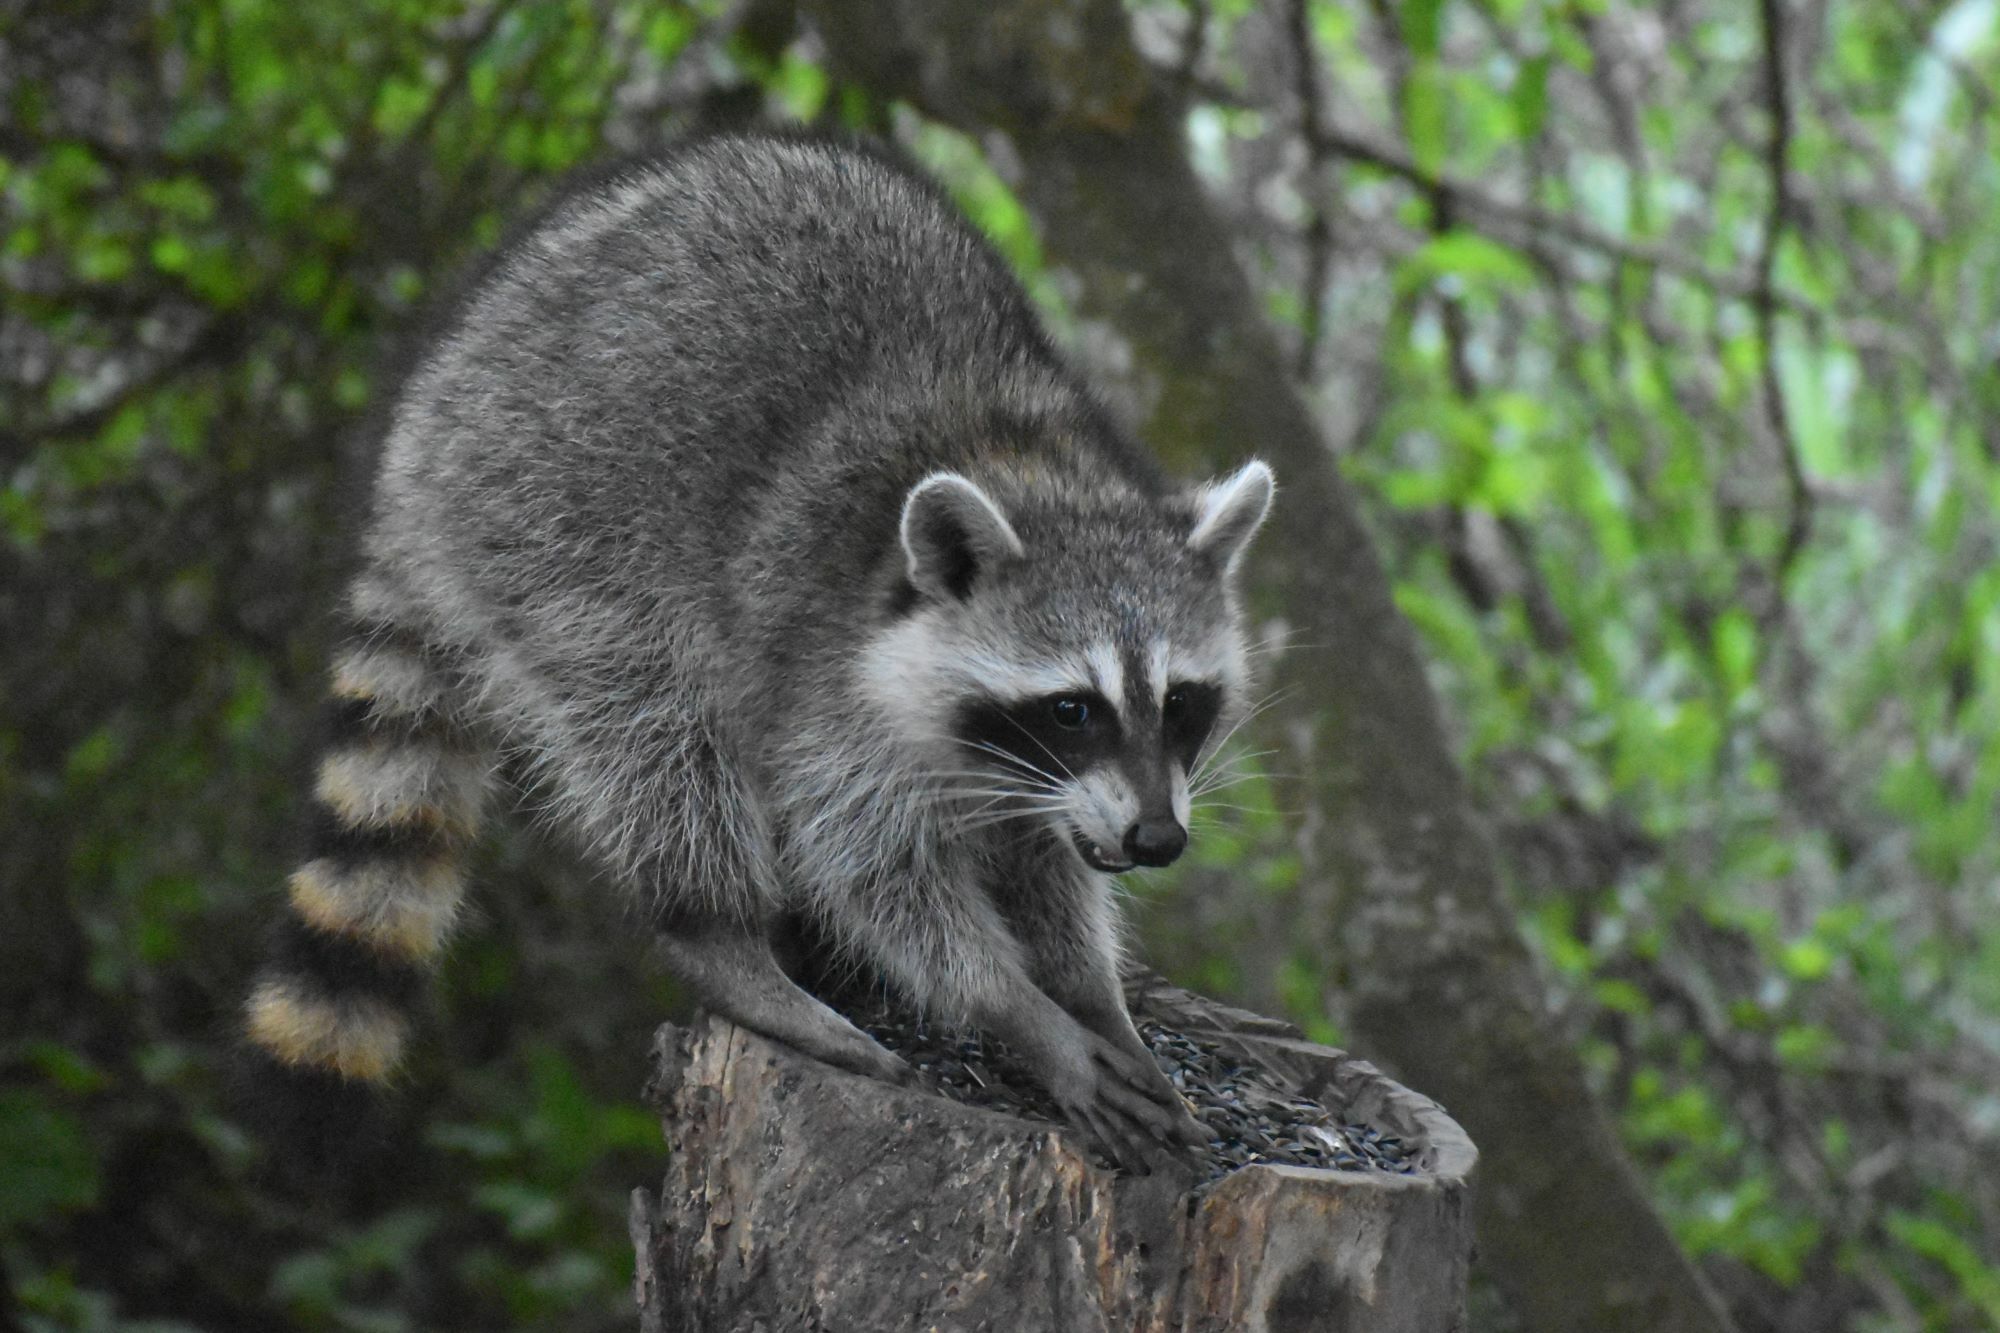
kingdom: Animalia
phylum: Chordata
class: Mammalia
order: Carnivora
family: Procyonidae
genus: Procyon
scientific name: Procyon lotor
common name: Raccoon
